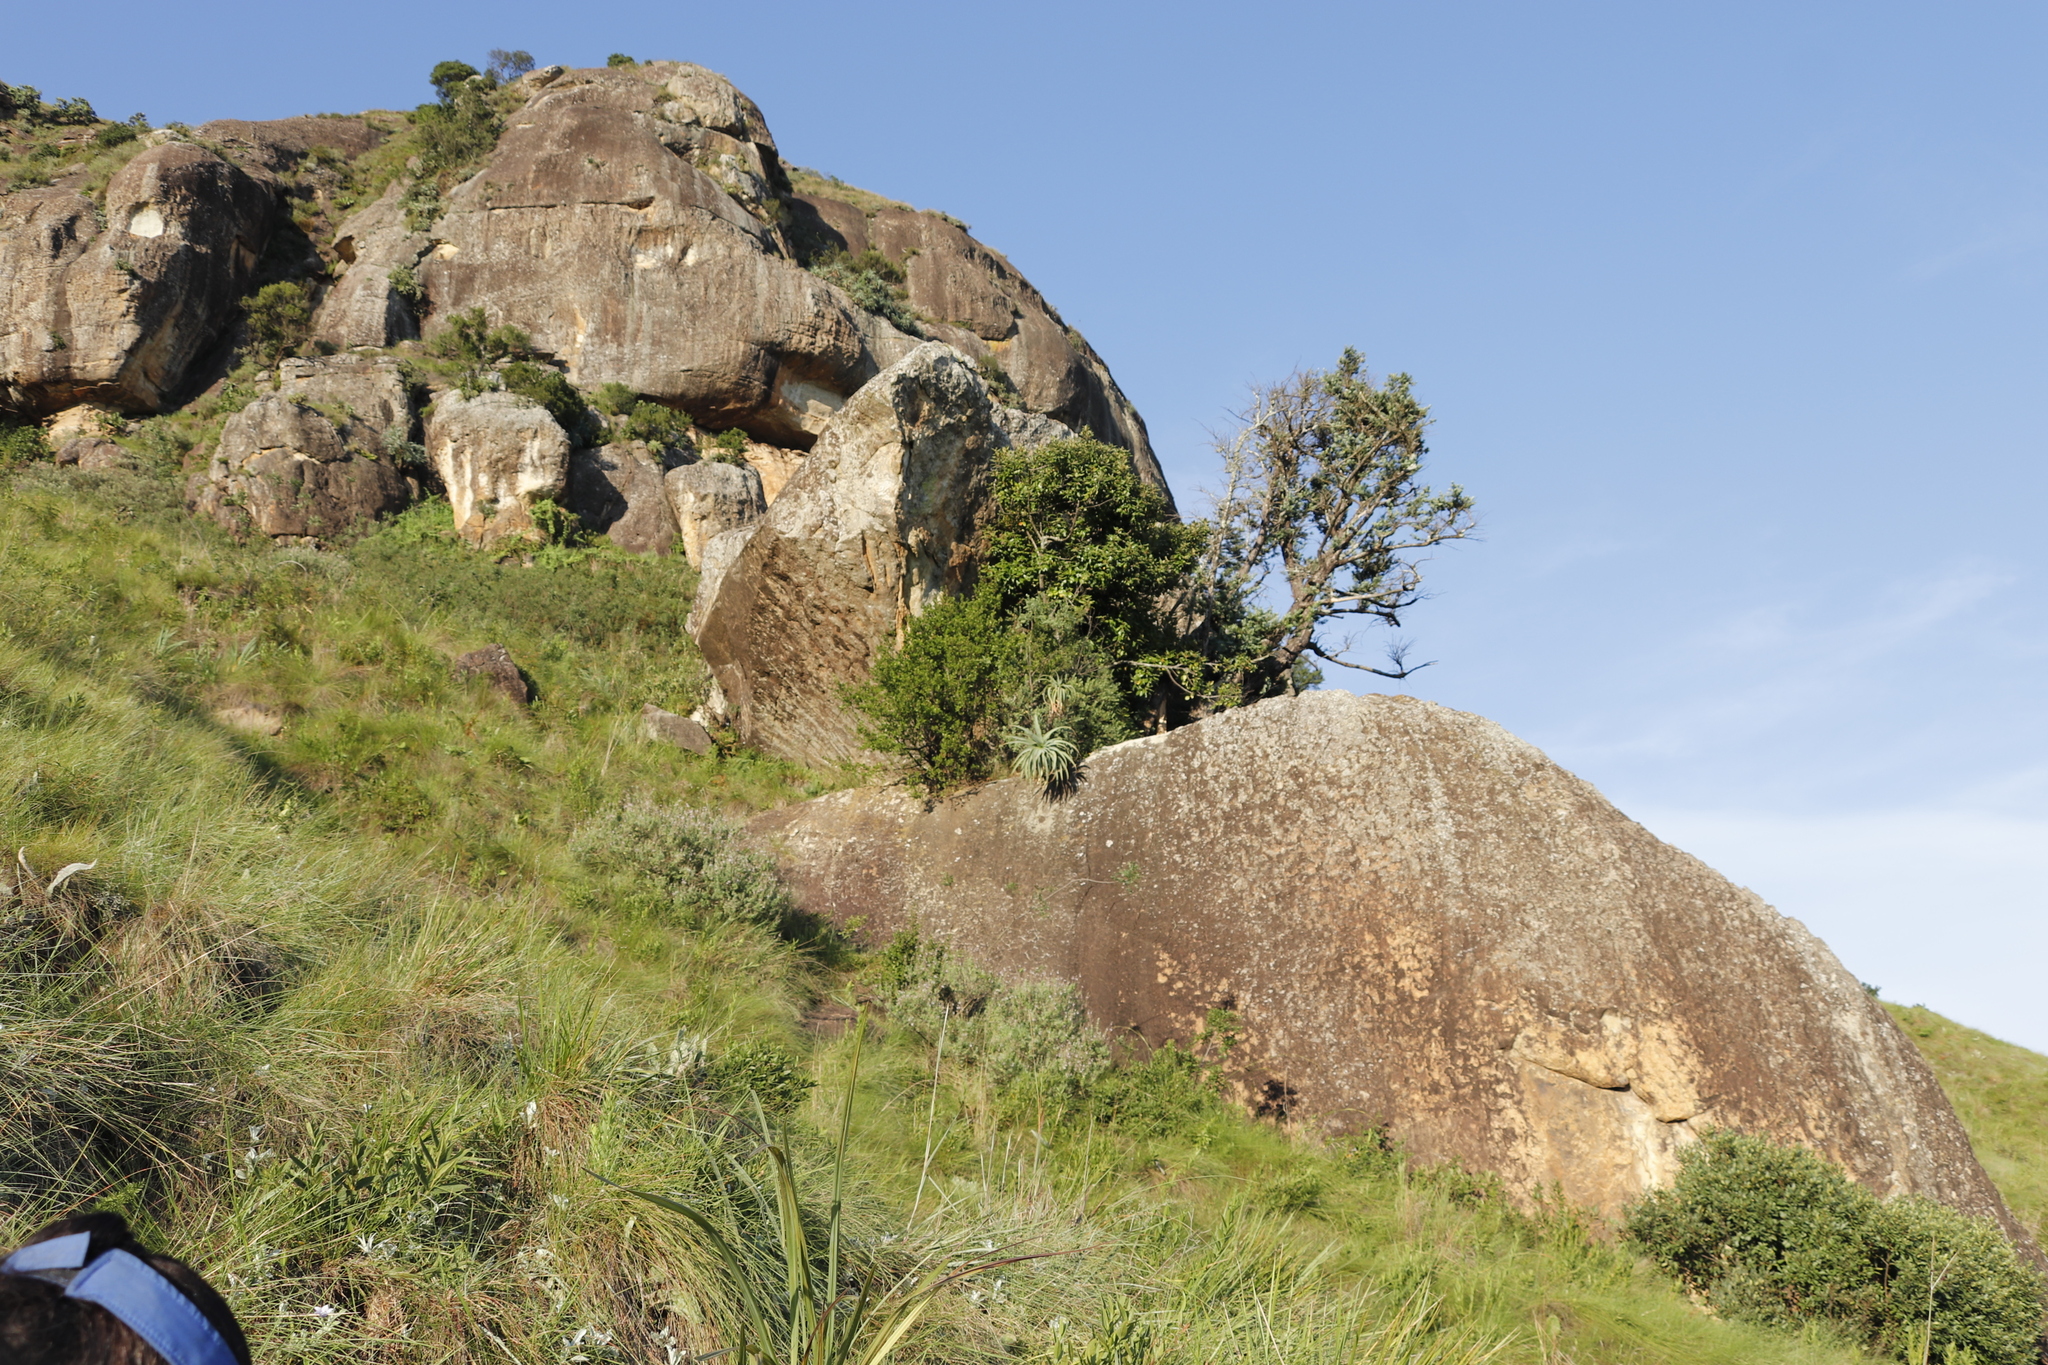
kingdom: Plantae
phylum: Tracheophyta
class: Liliopsida
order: Asparagales
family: Asphodelaceae
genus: Aloe
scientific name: Aloe arborescens
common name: Candelabra aloe
